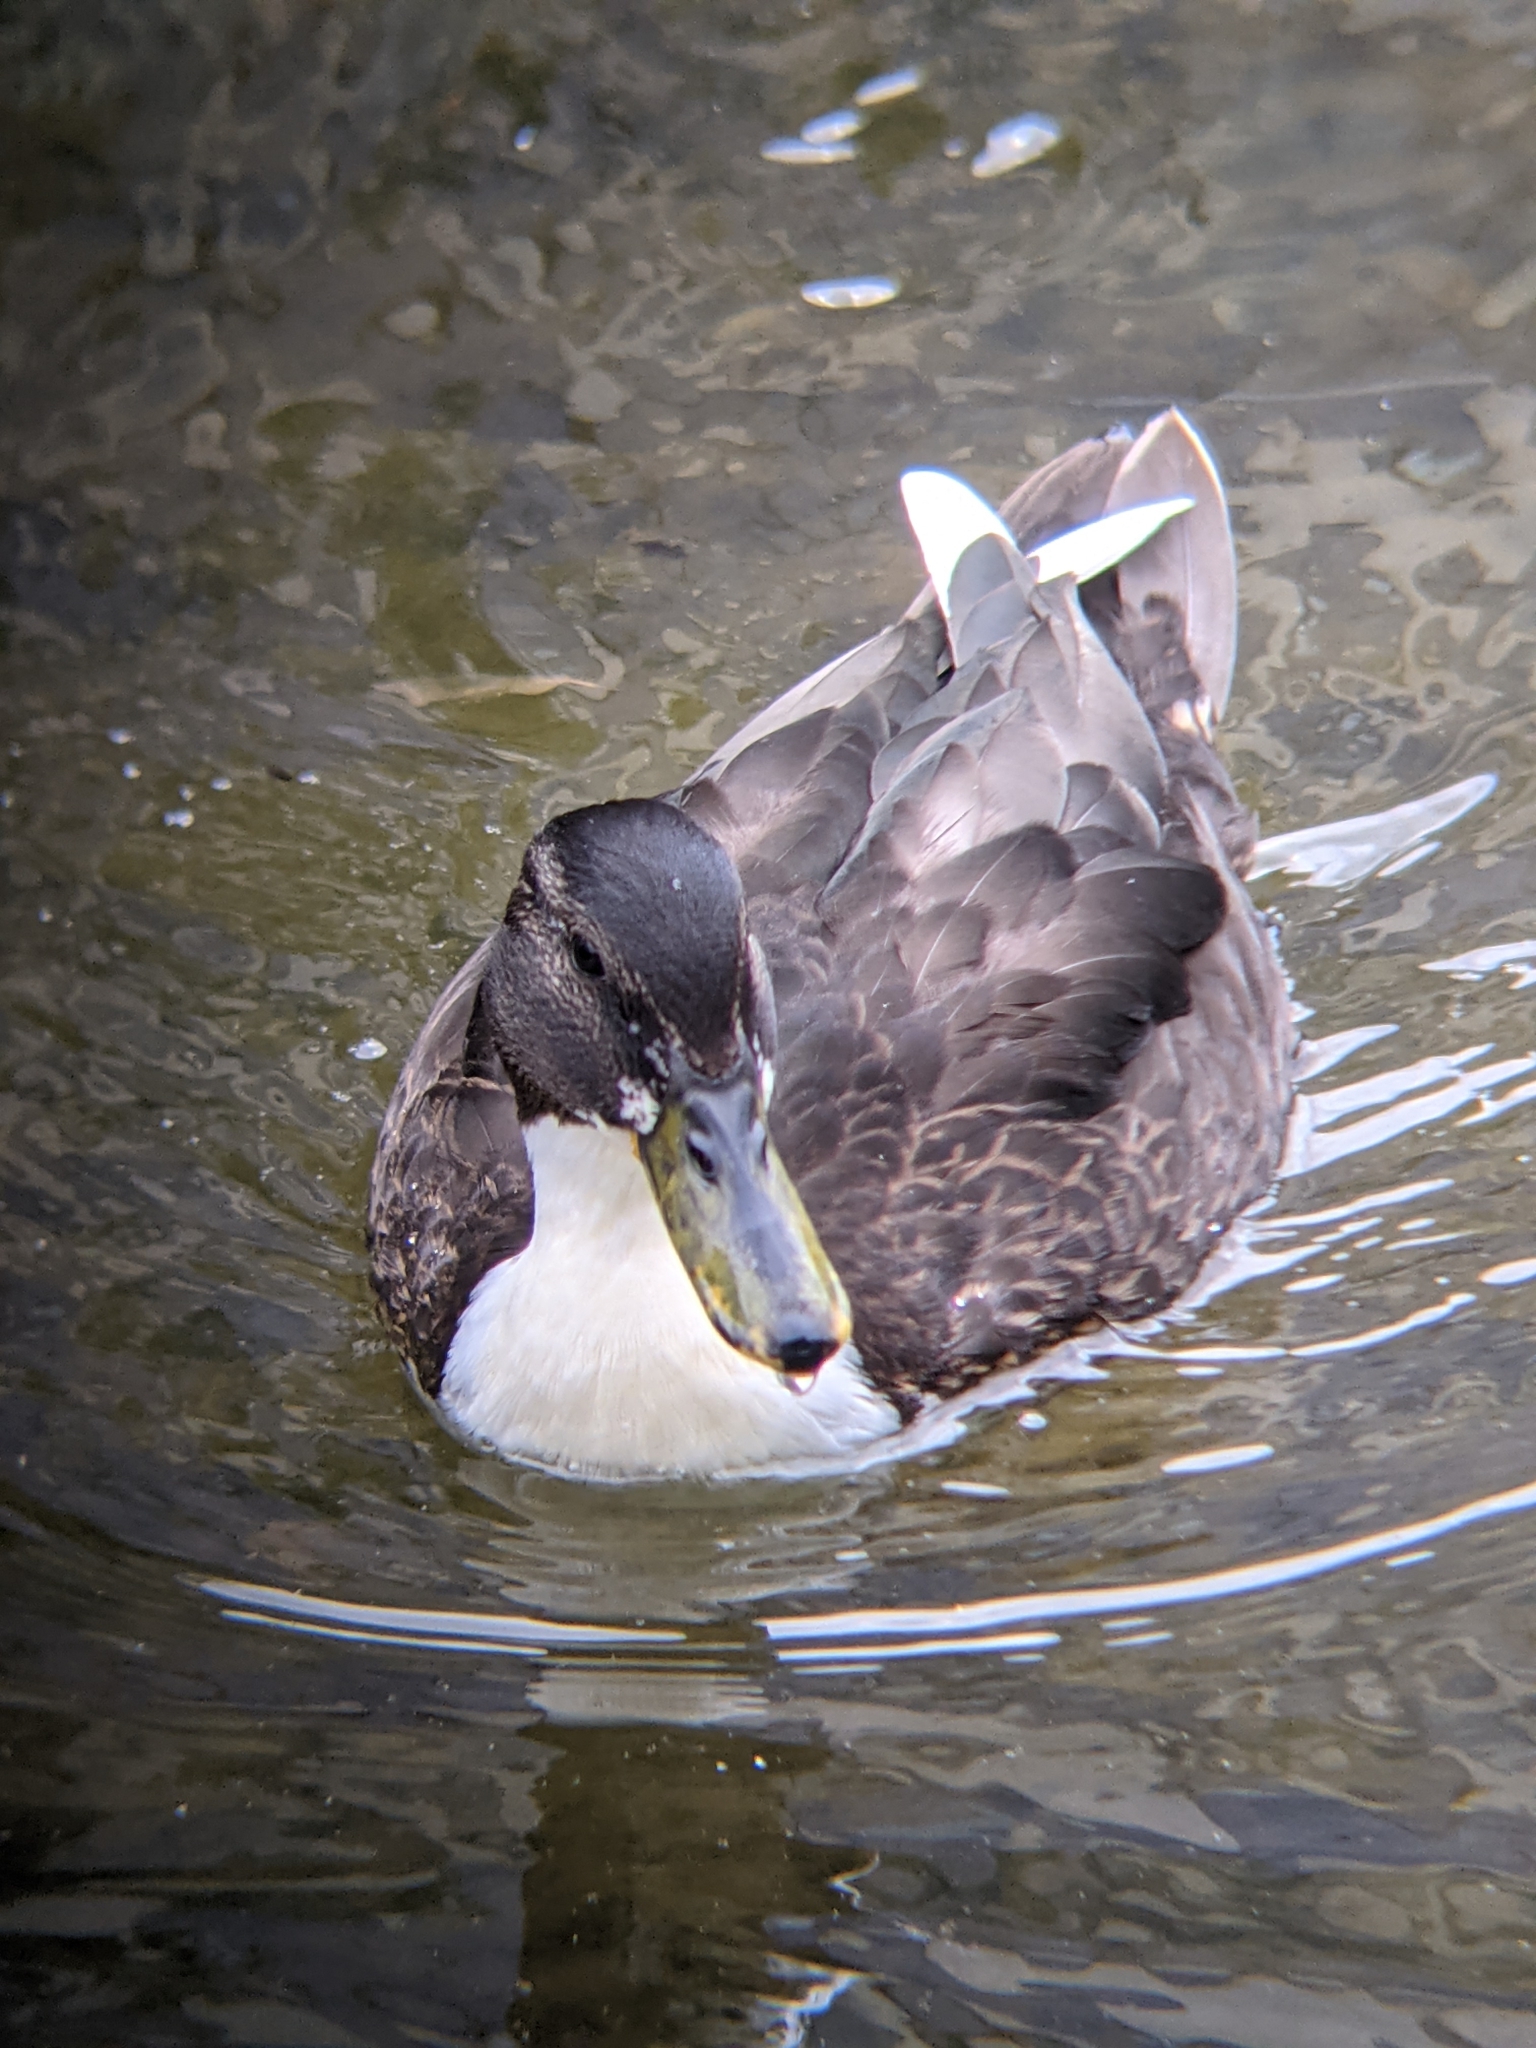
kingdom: Animalia
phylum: Chordata
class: Aves
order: Anseriformes
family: Anatidae
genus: Anas
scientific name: Anas platyrhynchos
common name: Mallard
